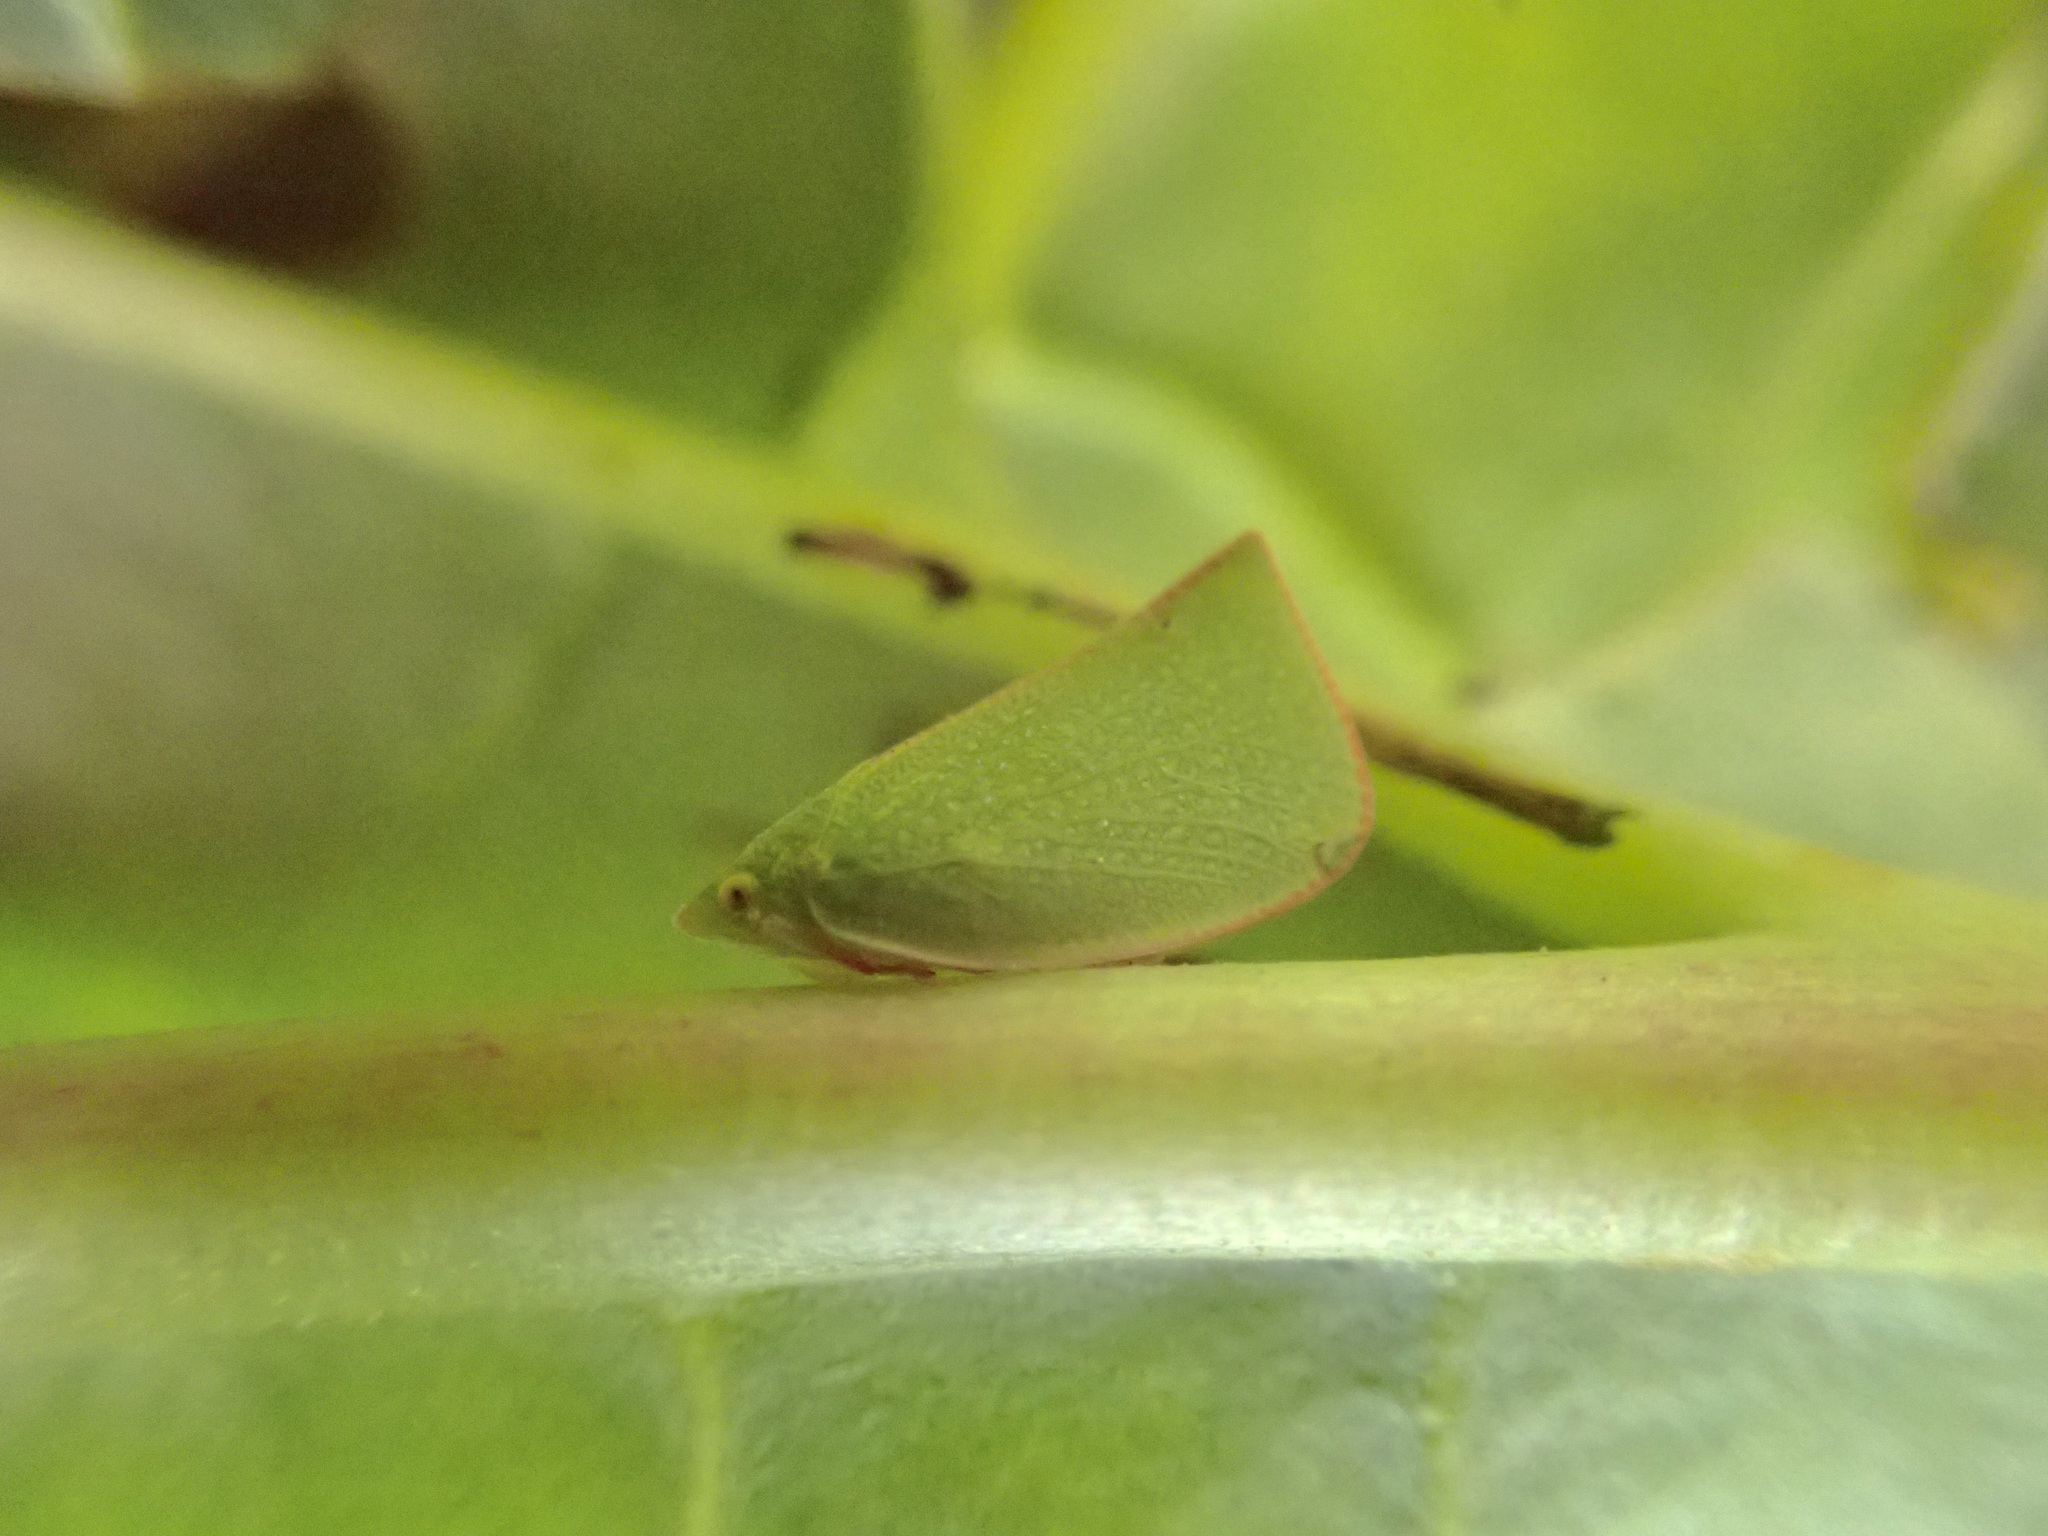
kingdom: Animalia
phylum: Arthropoda
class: Insecta
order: Hemiptera
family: Flatidae
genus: Siphanta
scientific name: Siphanta acuta
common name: Torpedo bug
